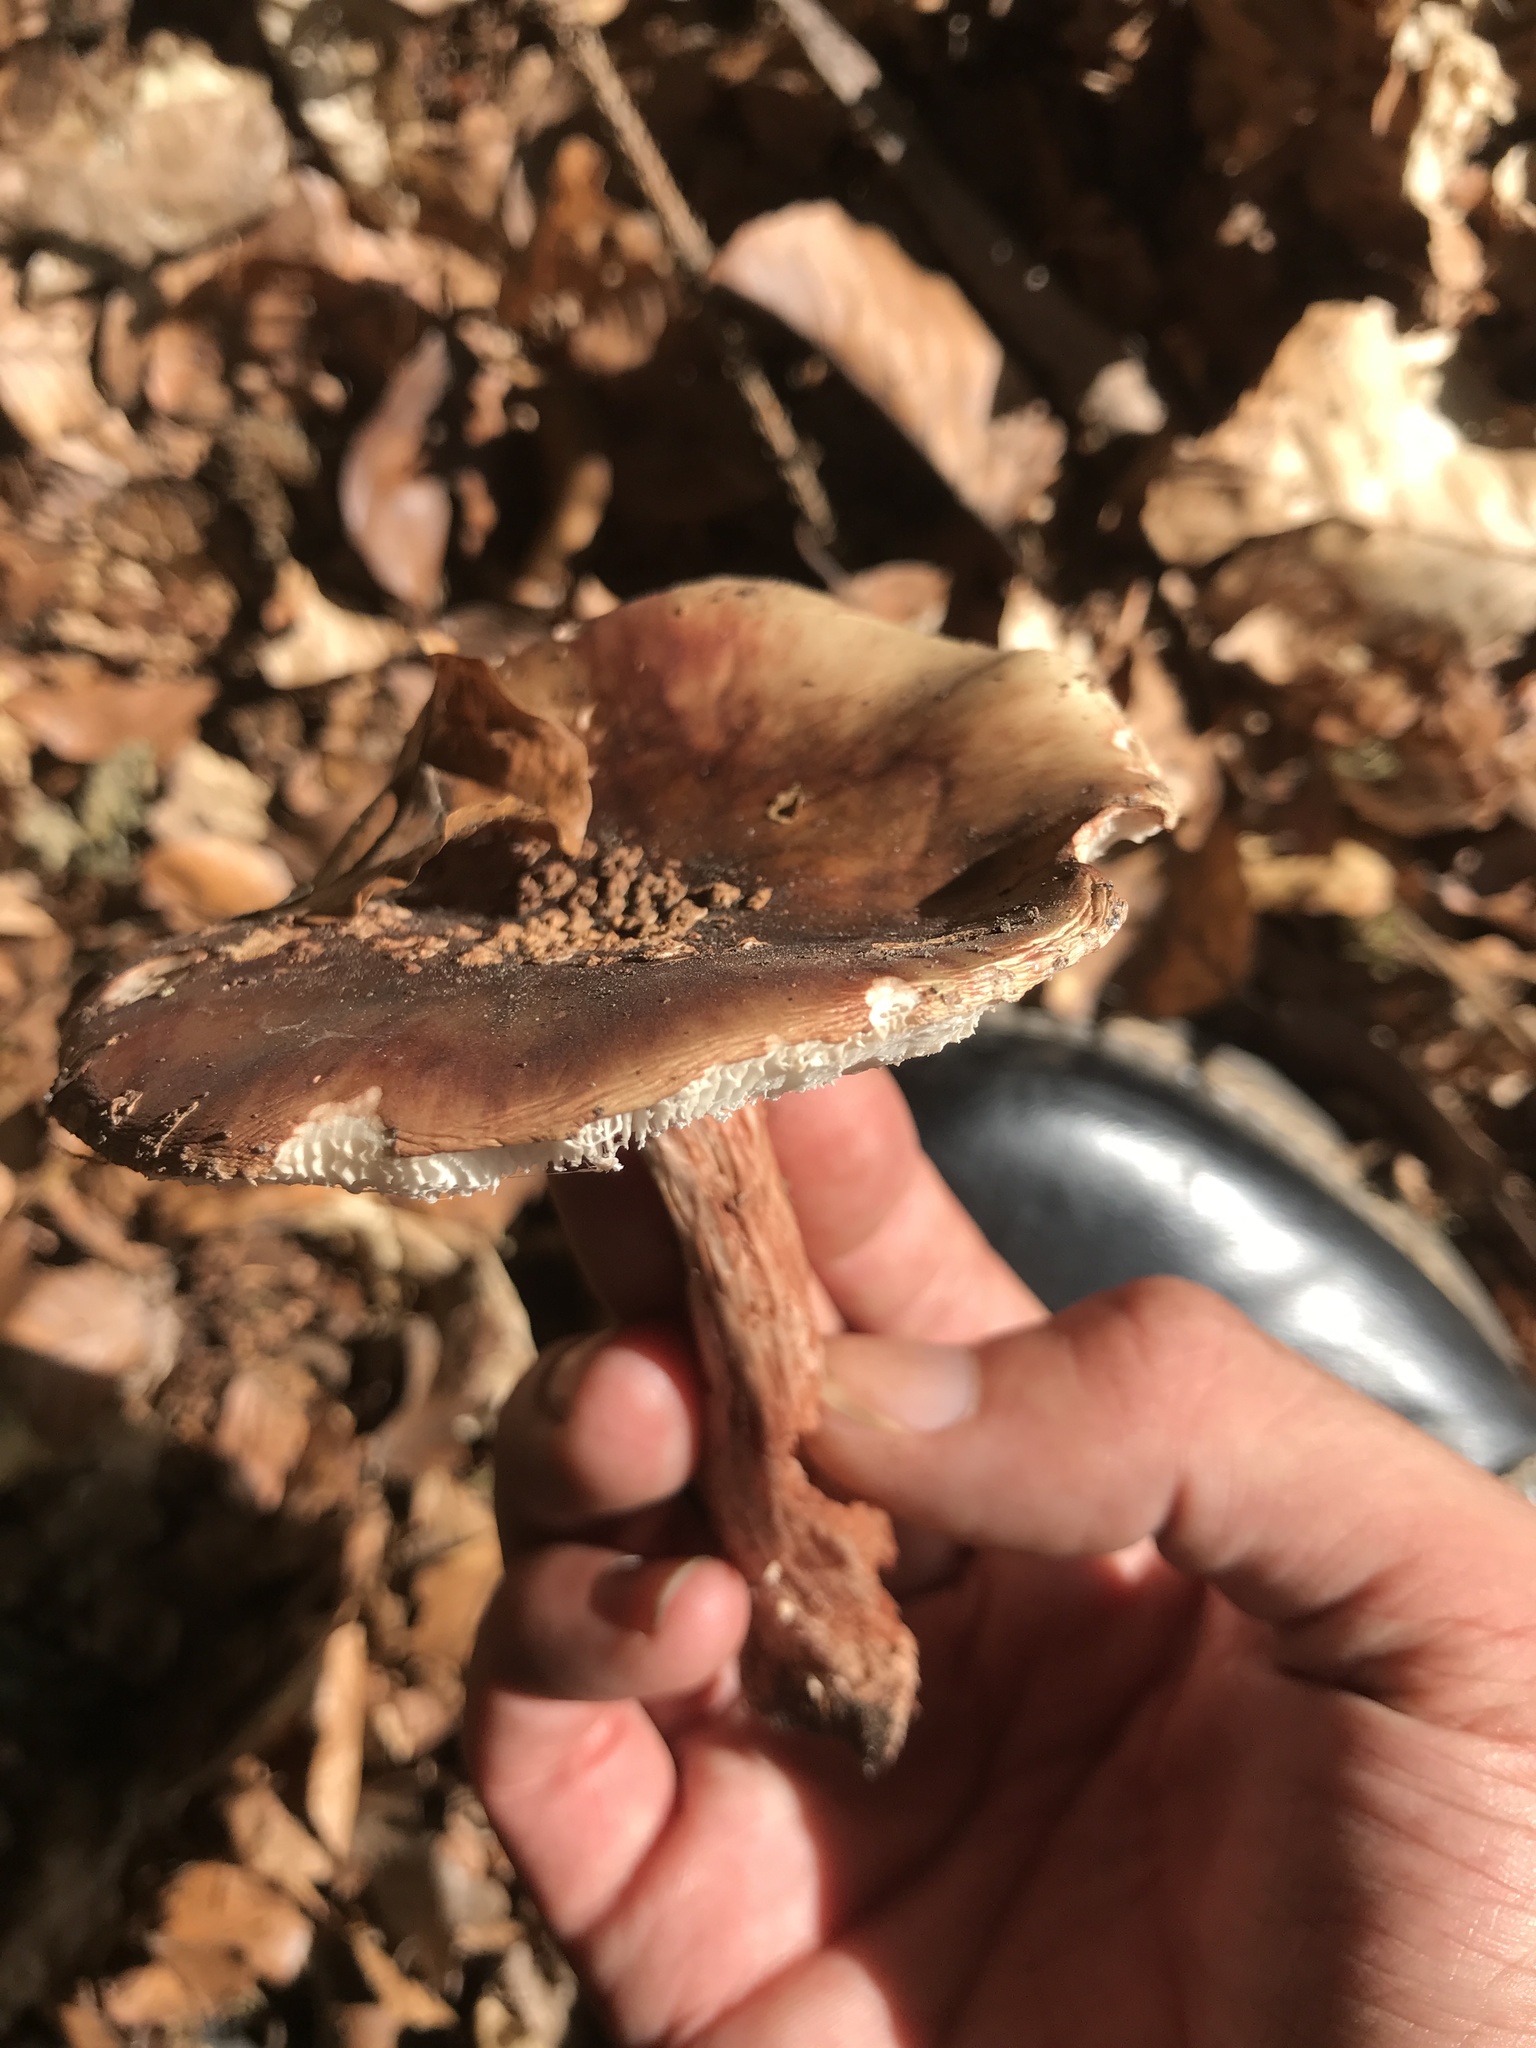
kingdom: Fungi
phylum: Basidiomycota
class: Agaricomycetes
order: Agaricales
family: Amanitaceae
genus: Amanita
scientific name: Amanita rubescens
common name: Blusher
